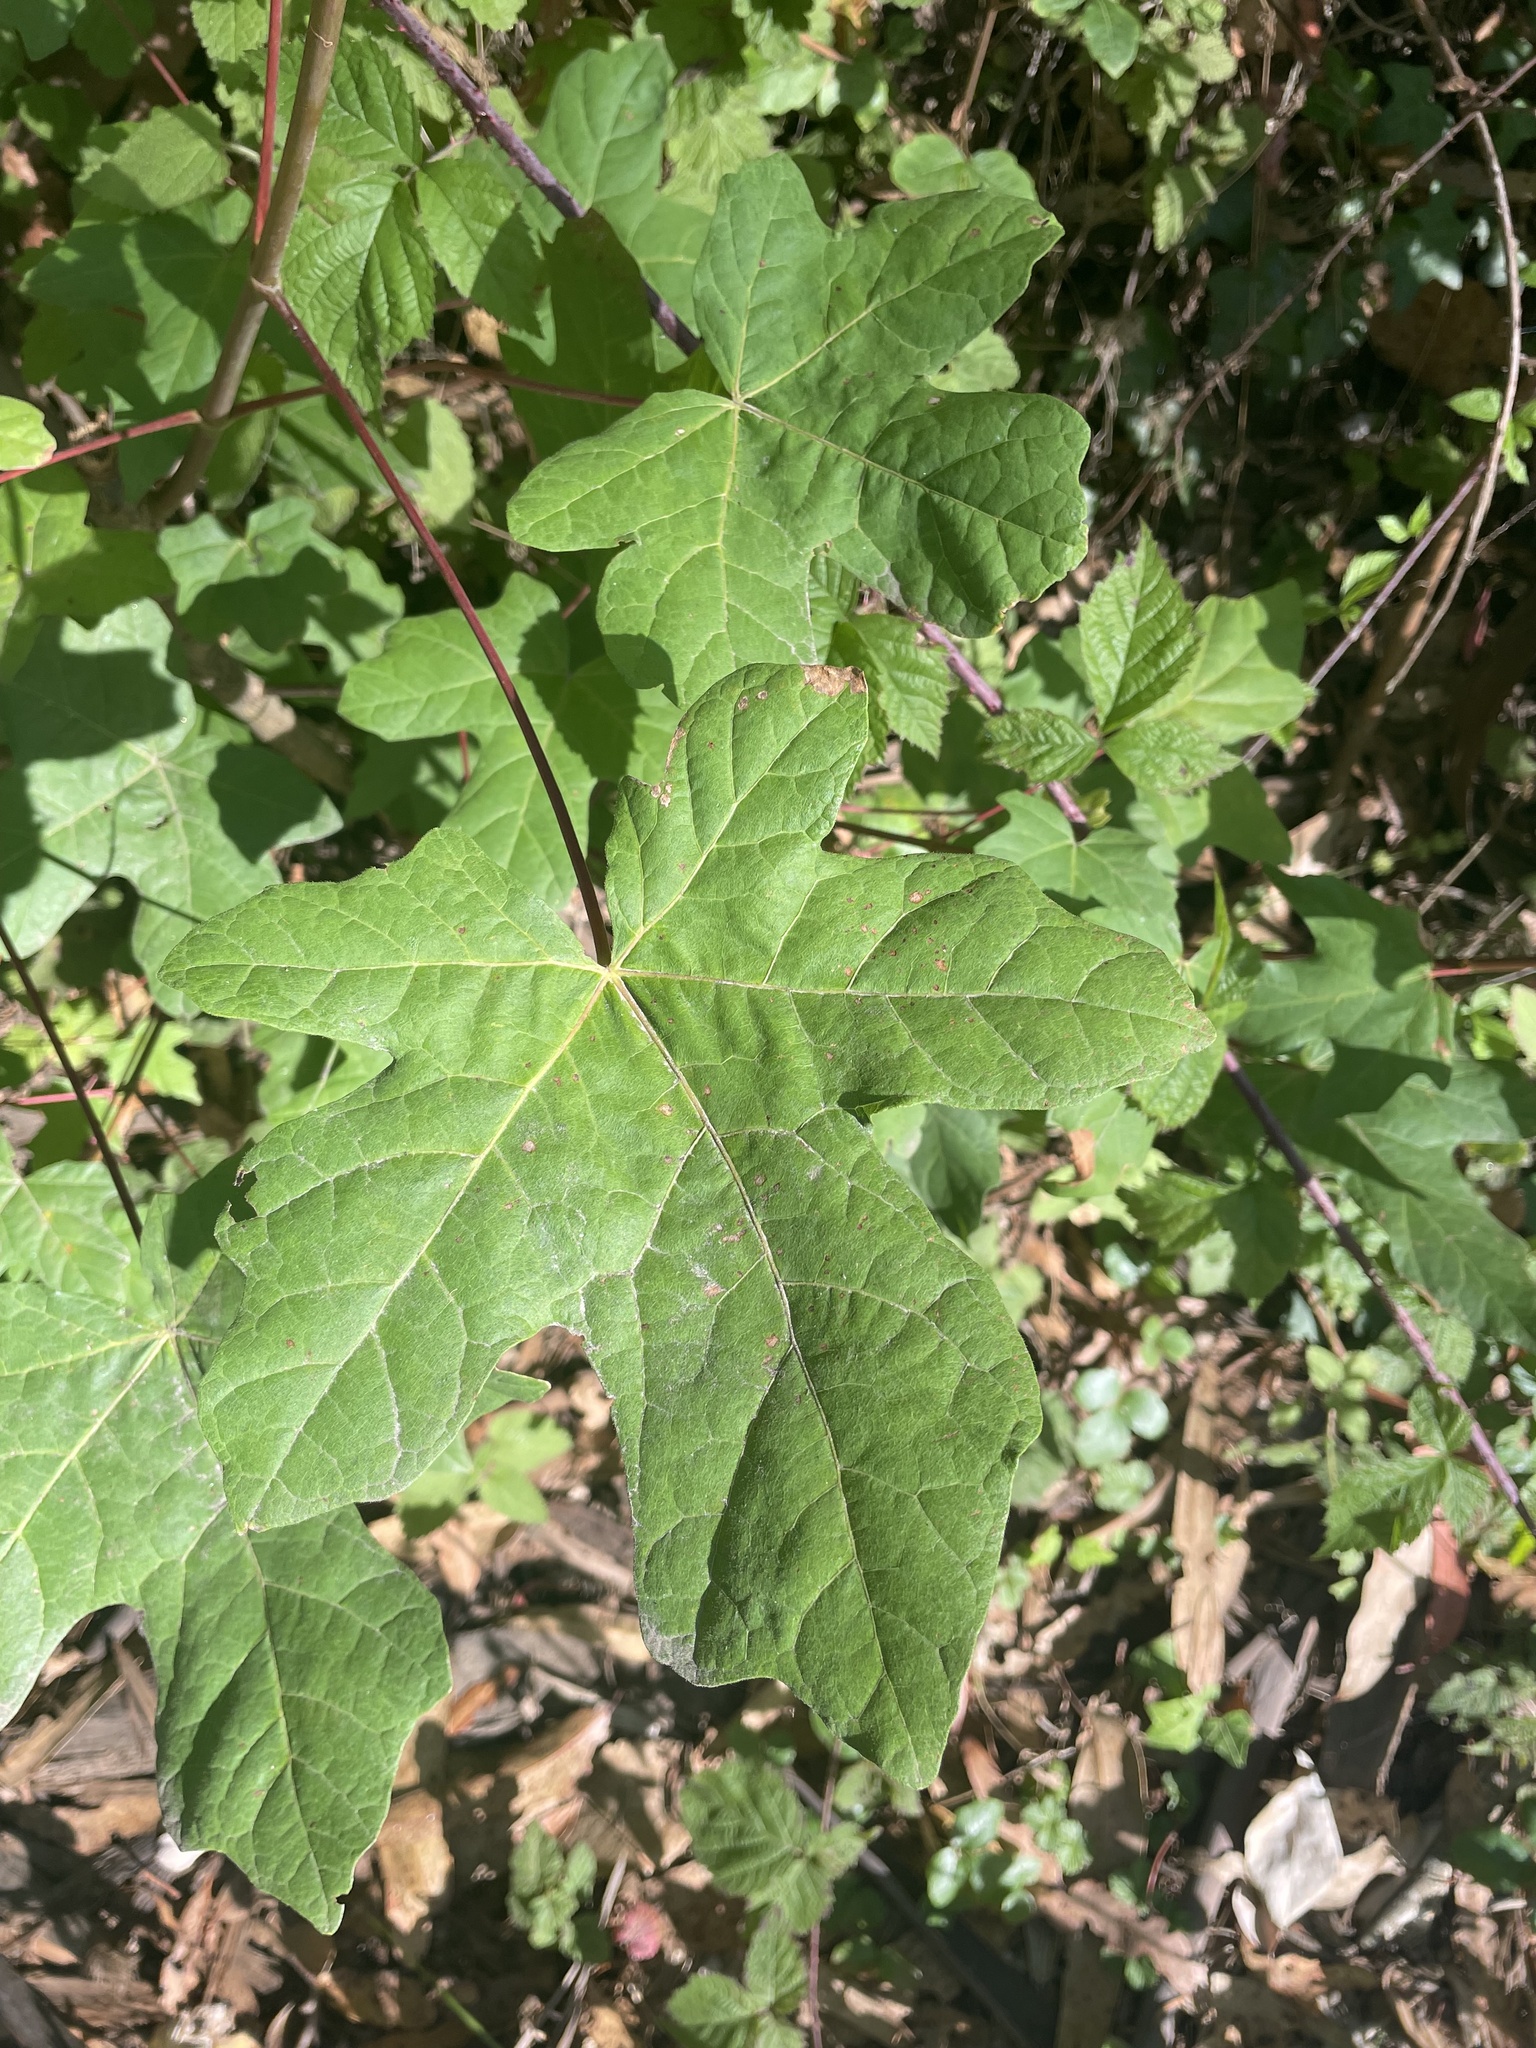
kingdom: Plantae
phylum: Tracheophyta
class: Magnoliopsida
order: Sapindales
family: Sapindaceae
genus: Acer
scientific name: Acer macrophyllum
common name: Oregon maple
